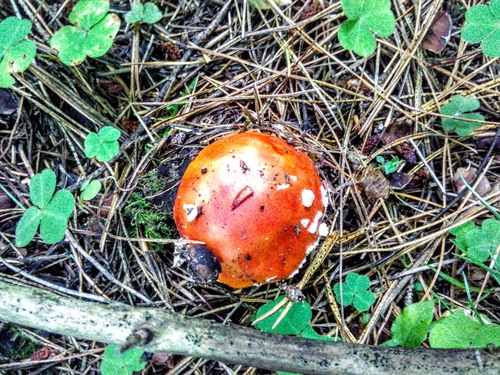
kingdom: Fungi
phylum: Basidiomycota
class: Agaricomycetes
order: Agaricales
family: Amanitaceae
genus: Amanita
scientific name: Amanita muscaria
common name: Fly agaric
